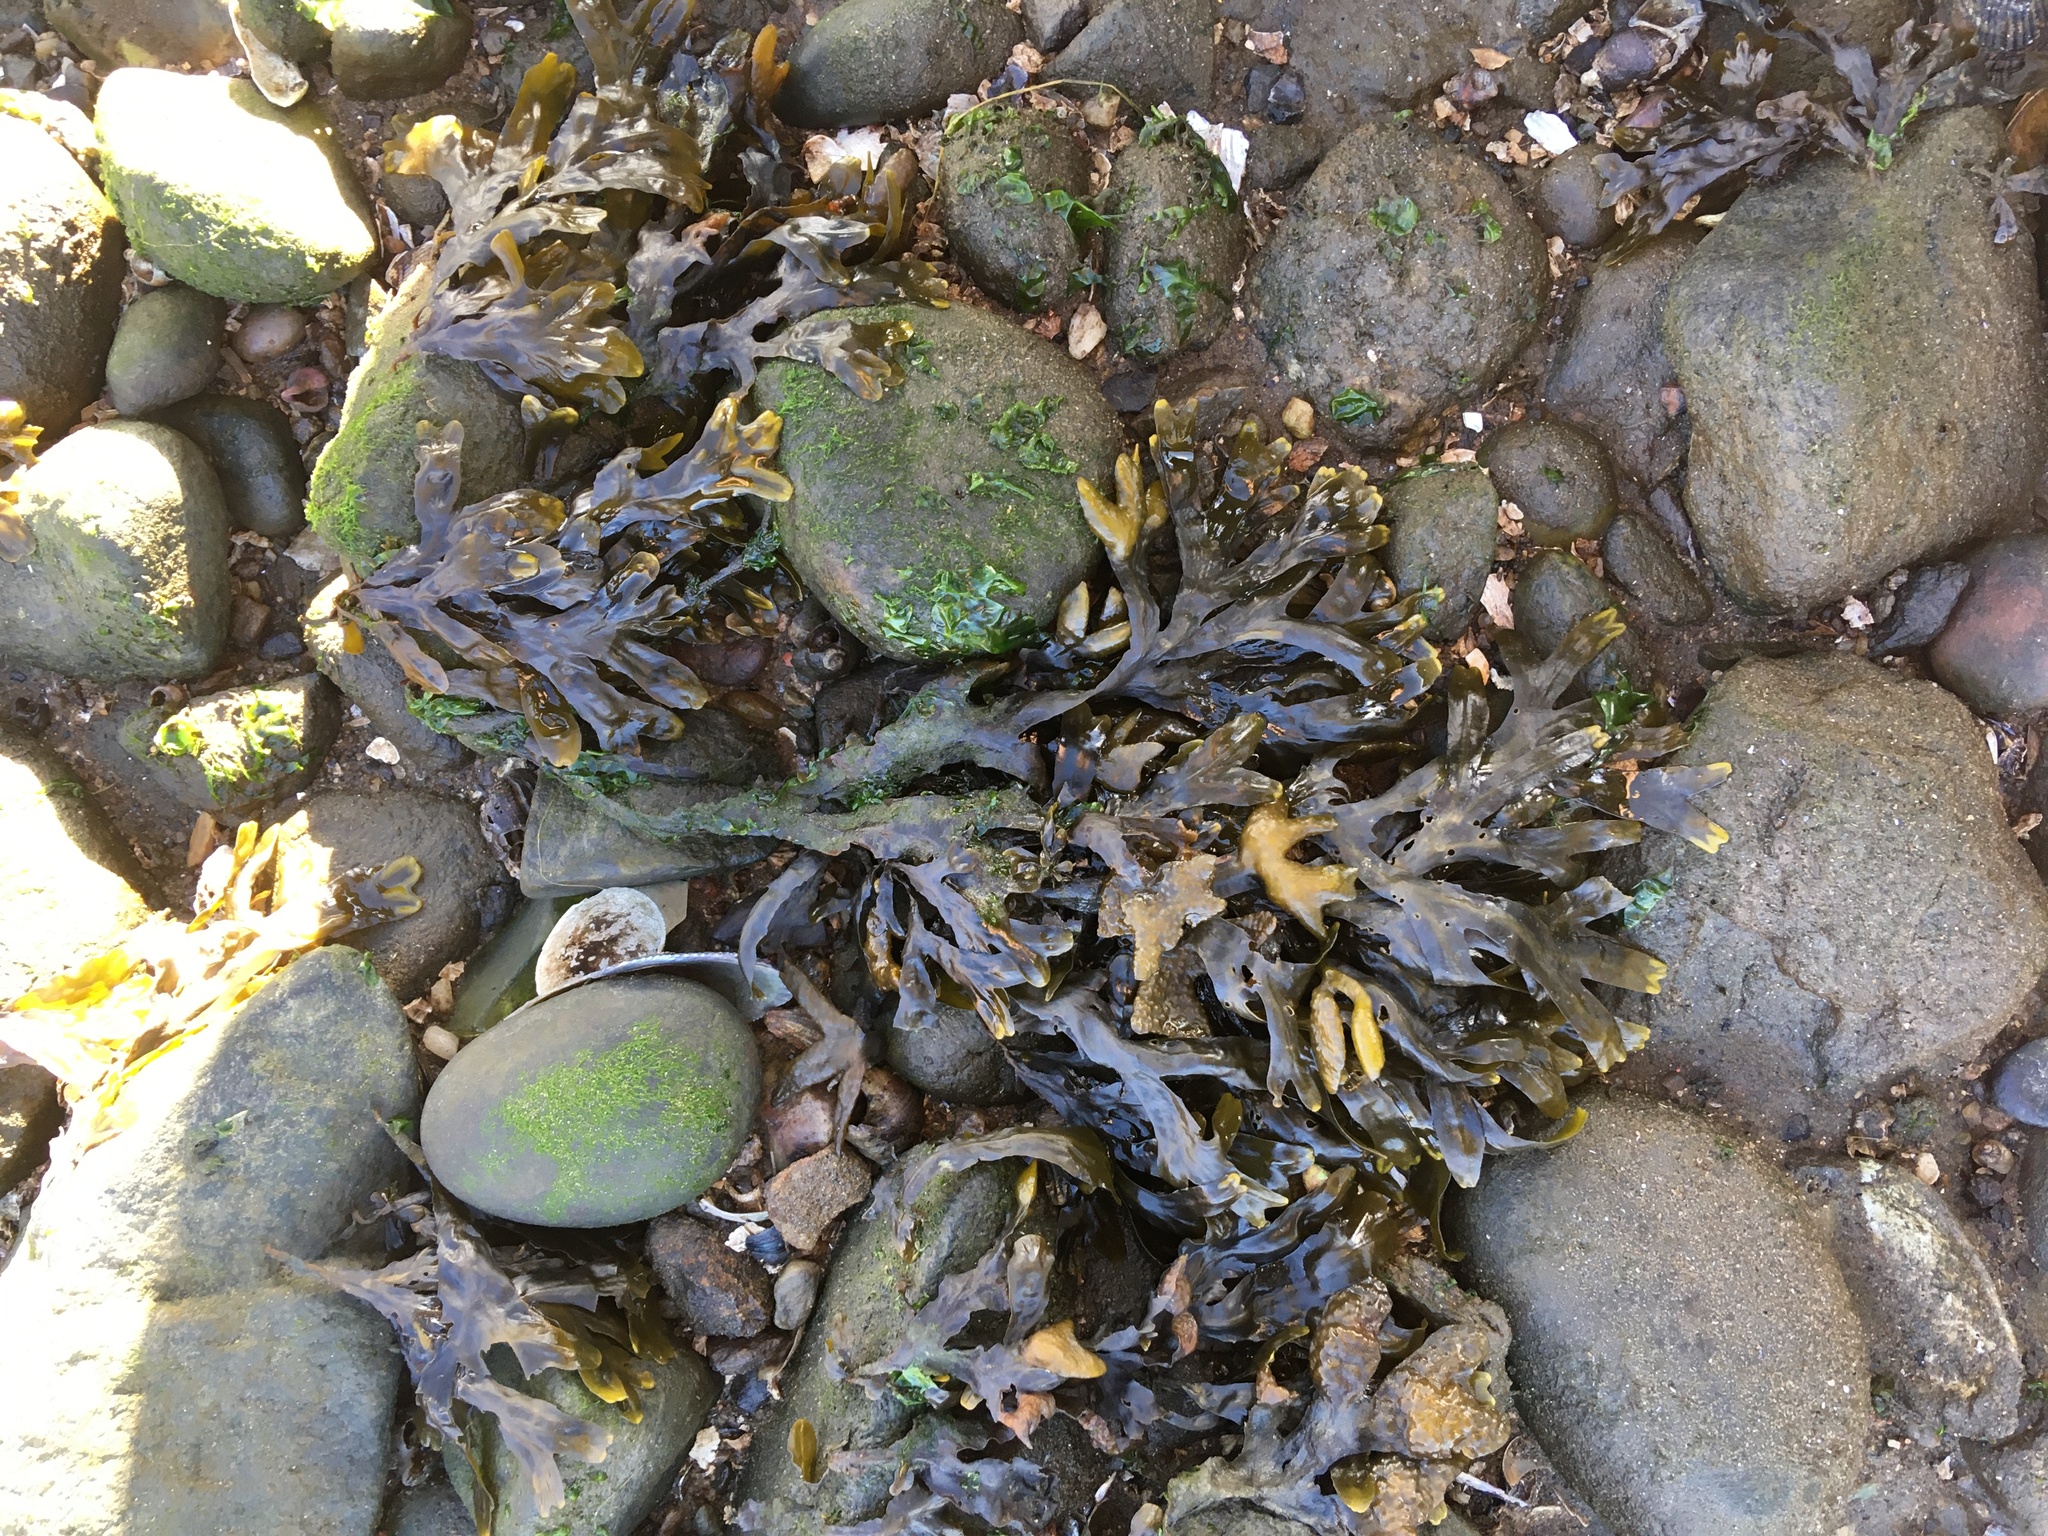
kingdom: Chromista
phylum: Ochrophyta
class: Phaeophyceae
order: Fucales
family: Fucaceae
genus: Fucus
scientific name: Fucus vesiculosus
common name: Bladder wrack
